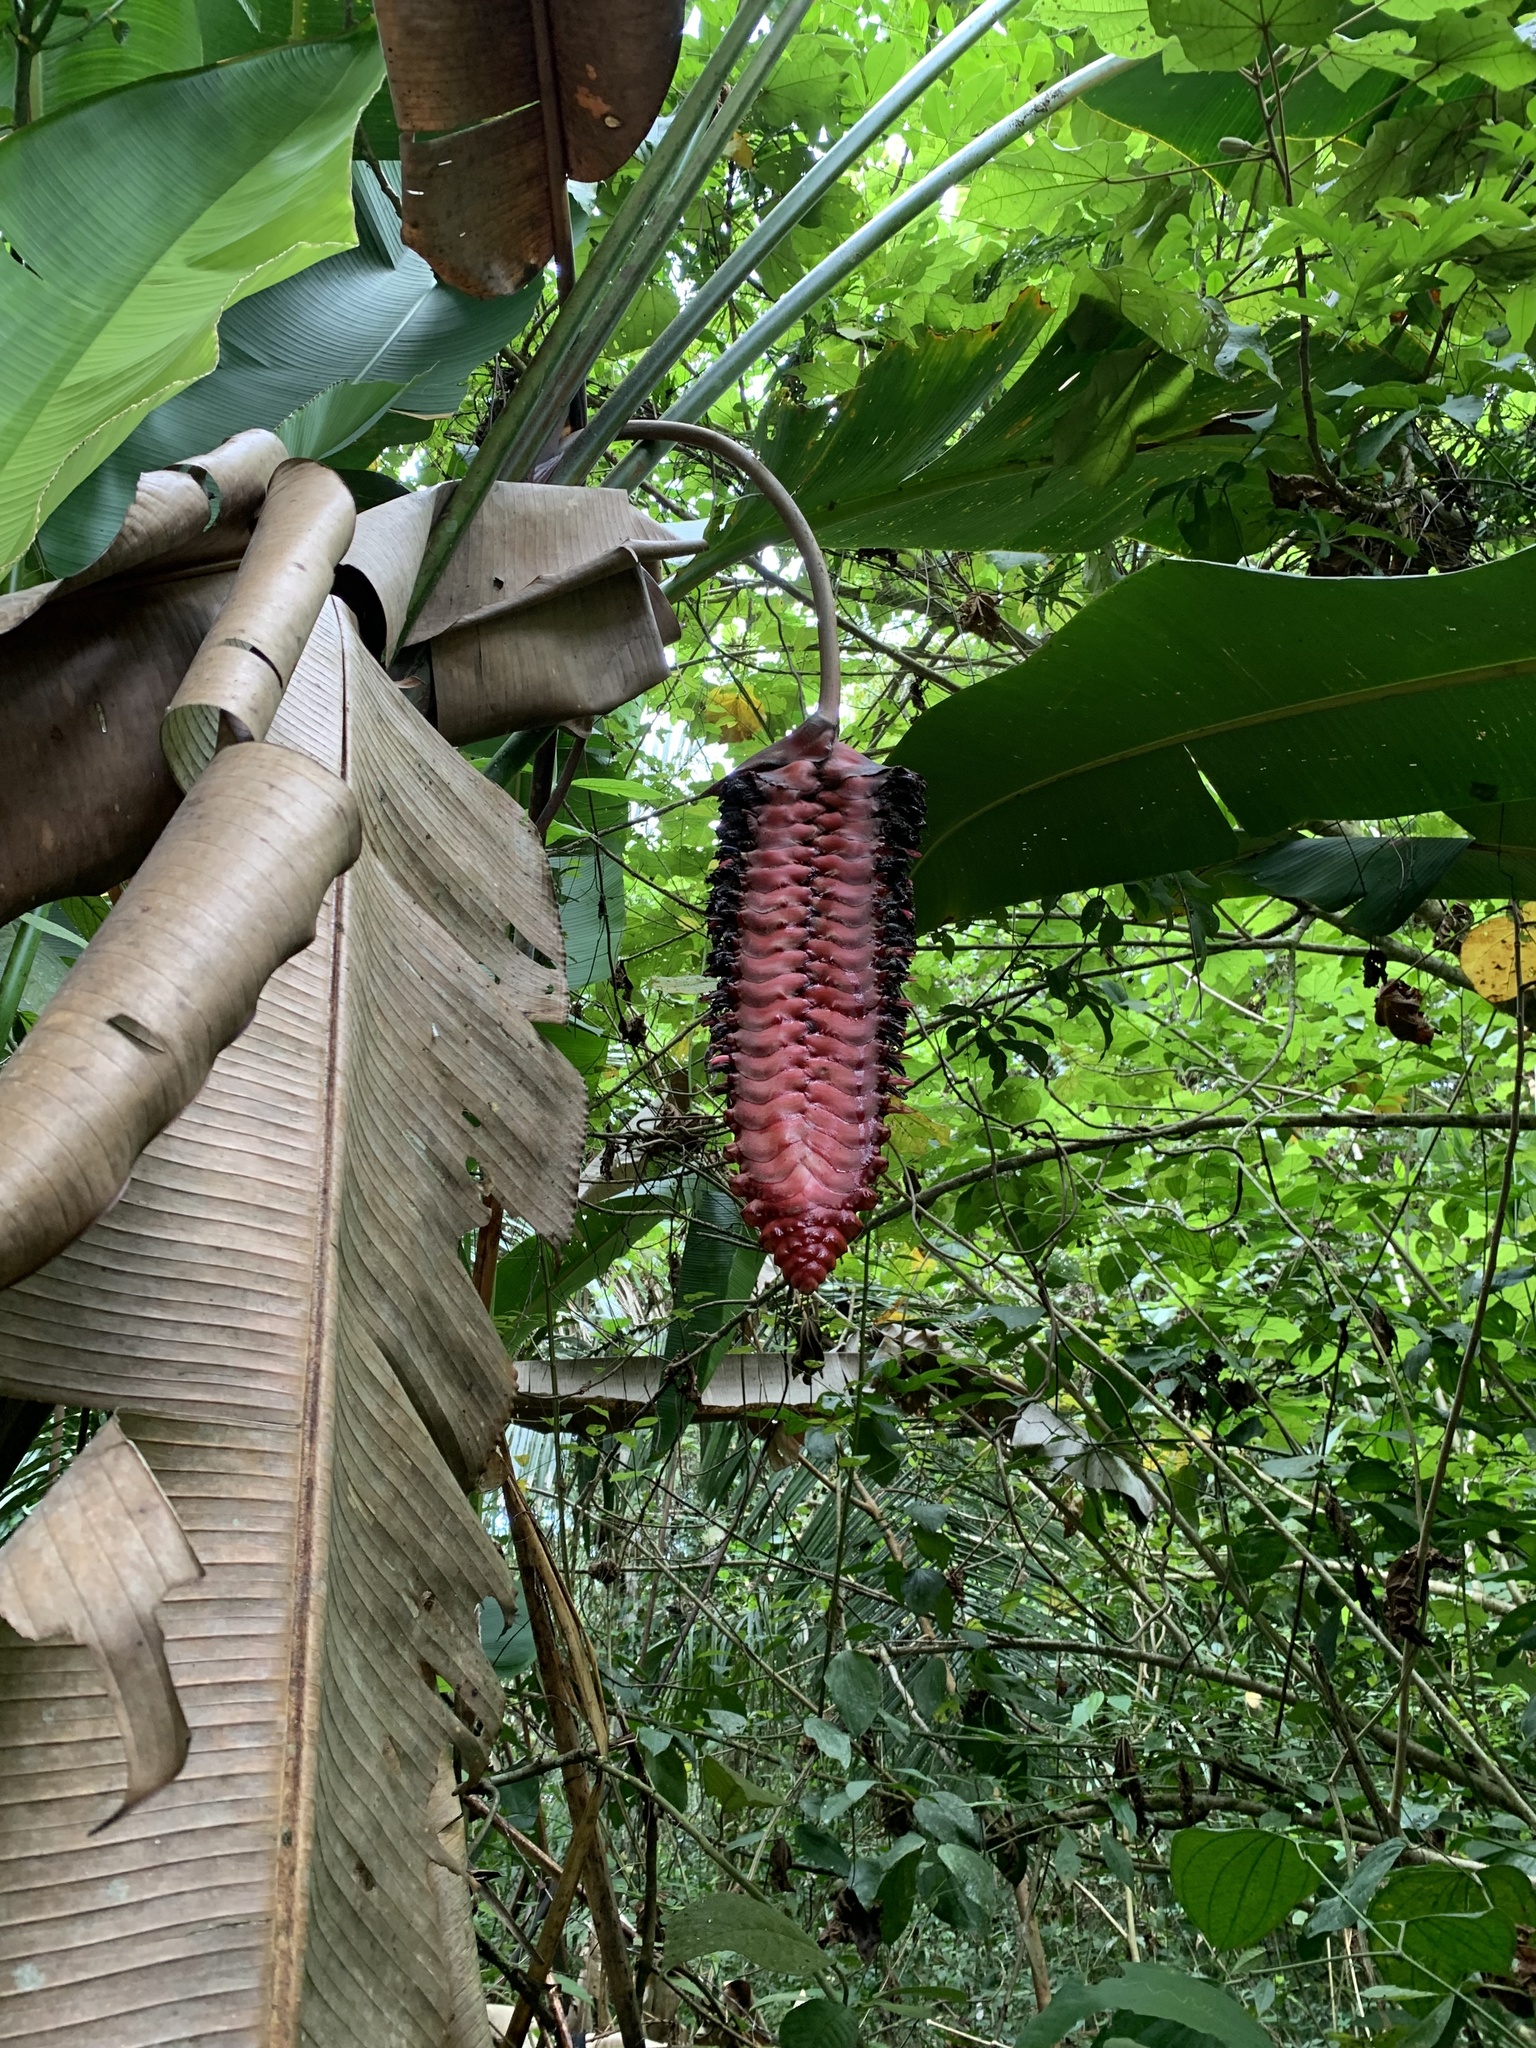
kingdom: Plantae
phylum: Tracheophyta
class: Liliopsida
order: Zingiberales
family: Heliconiaceae
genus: Heliconia
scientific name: Heliconia mariae
